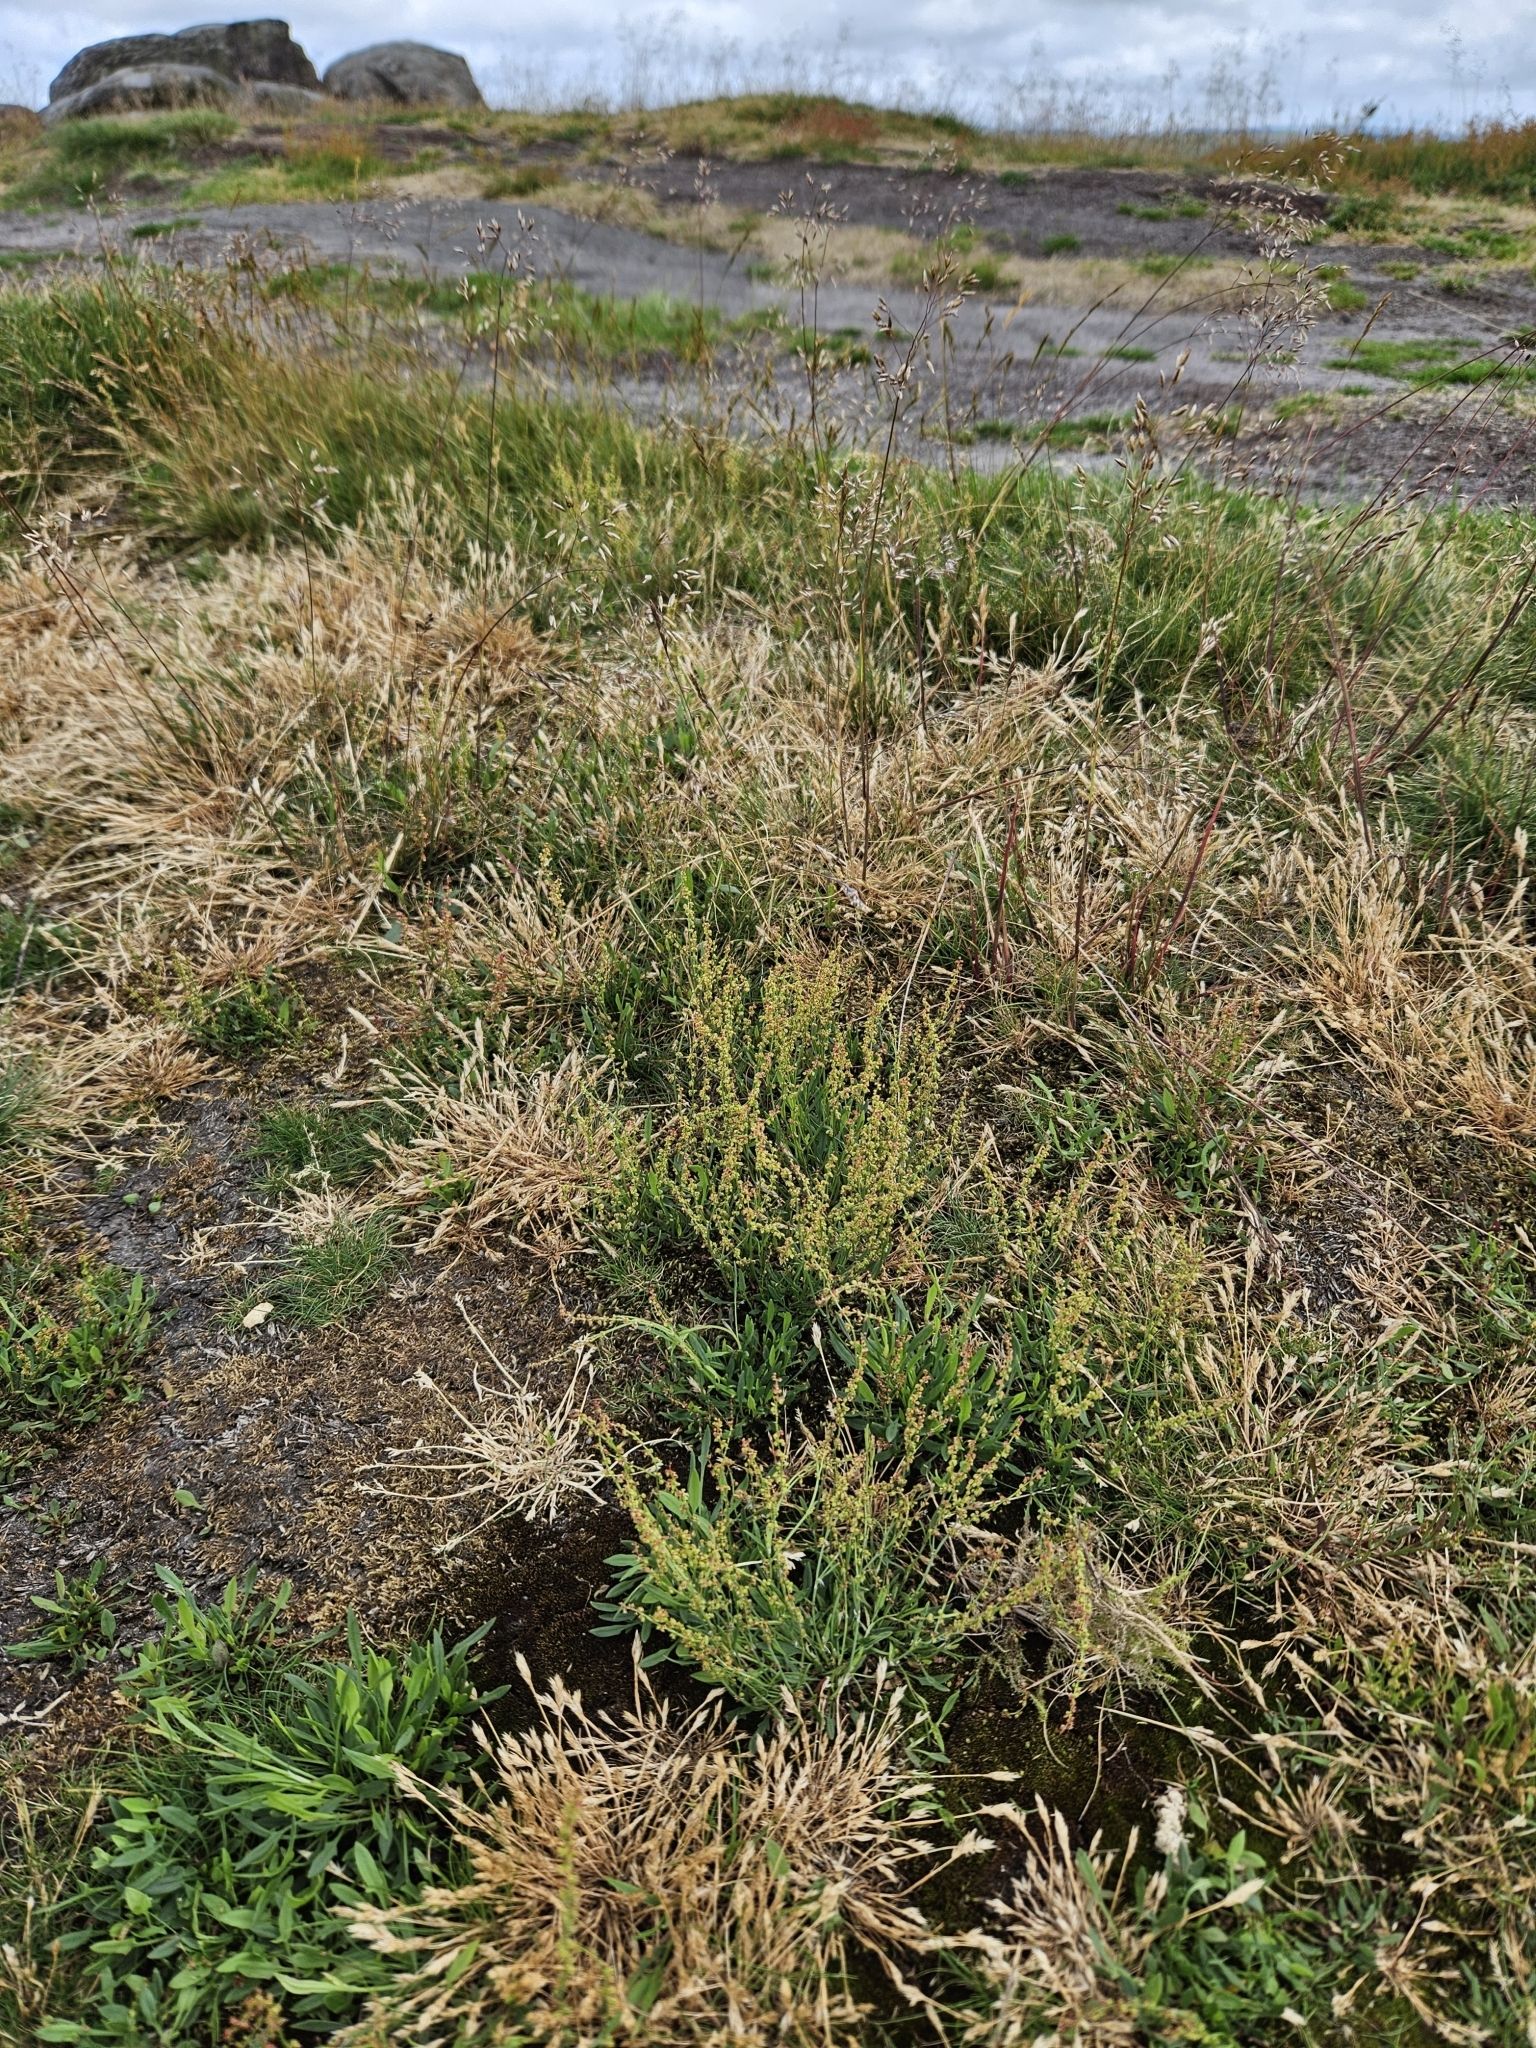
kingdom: Plantae
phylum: Bryophyta
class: Bryopsida
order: Dicranales
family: Ditrichaceae
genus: Ceratodon
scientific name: Ceratodon purpureus
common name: Redshank
